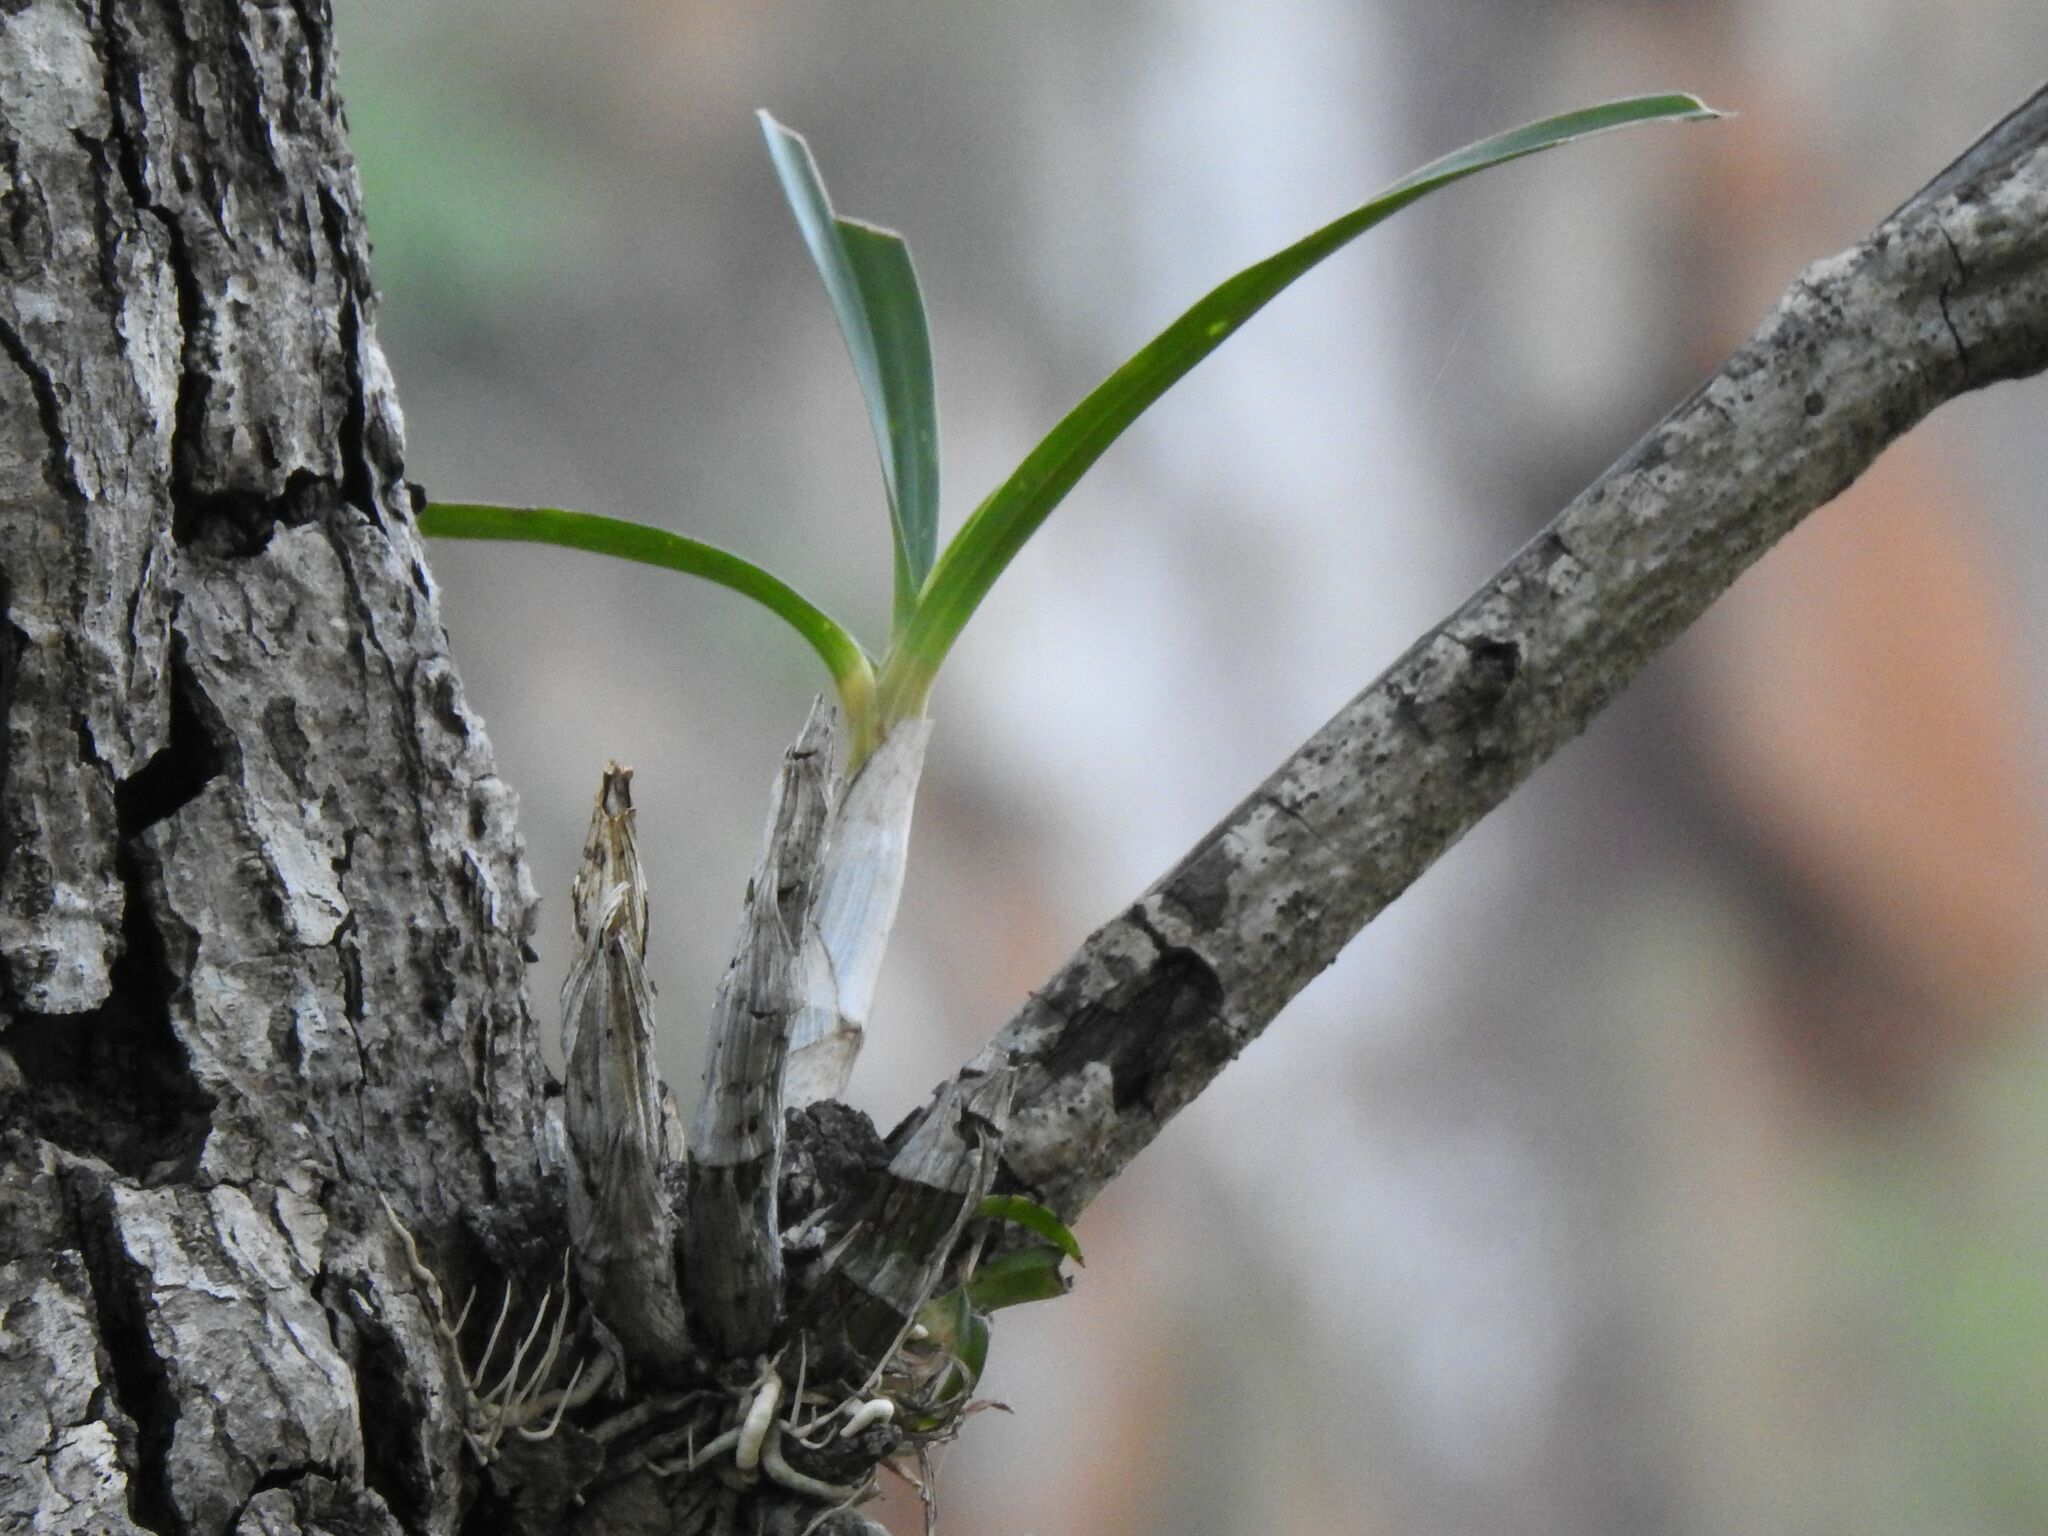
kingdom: Plantae
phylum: Tracheophyta
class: Liliopsida
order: Asparagales
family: Orchidaceae
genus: Ansellia
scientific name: Ansellia africana
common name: African ansellia
